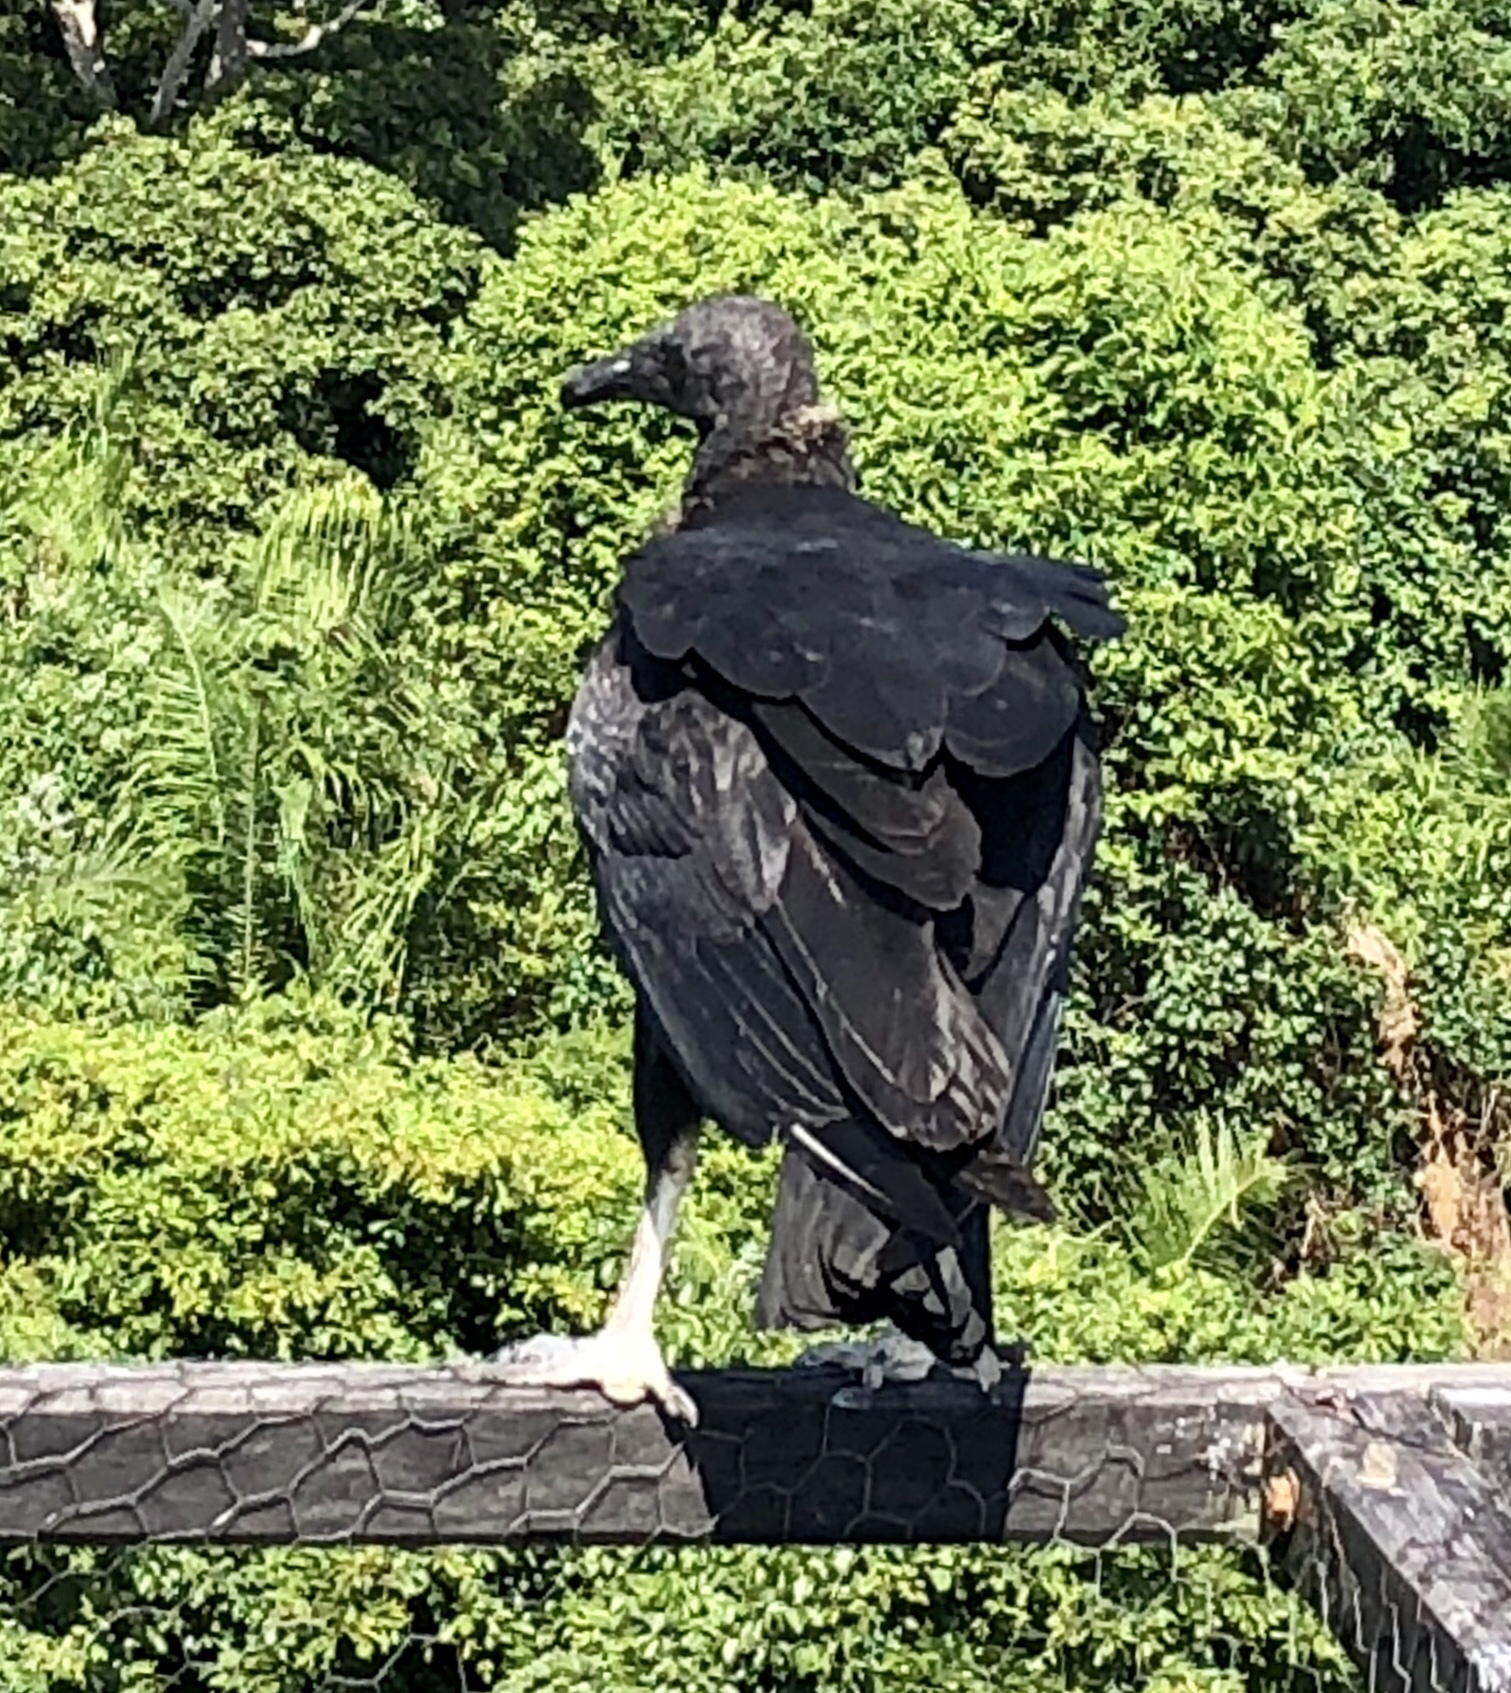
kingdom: Animalia
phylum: Chordata
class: Aves
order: Accipitriformes
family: Cathartidae
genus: Coragyps
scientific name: Coragyps atratus
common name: Black vulture
